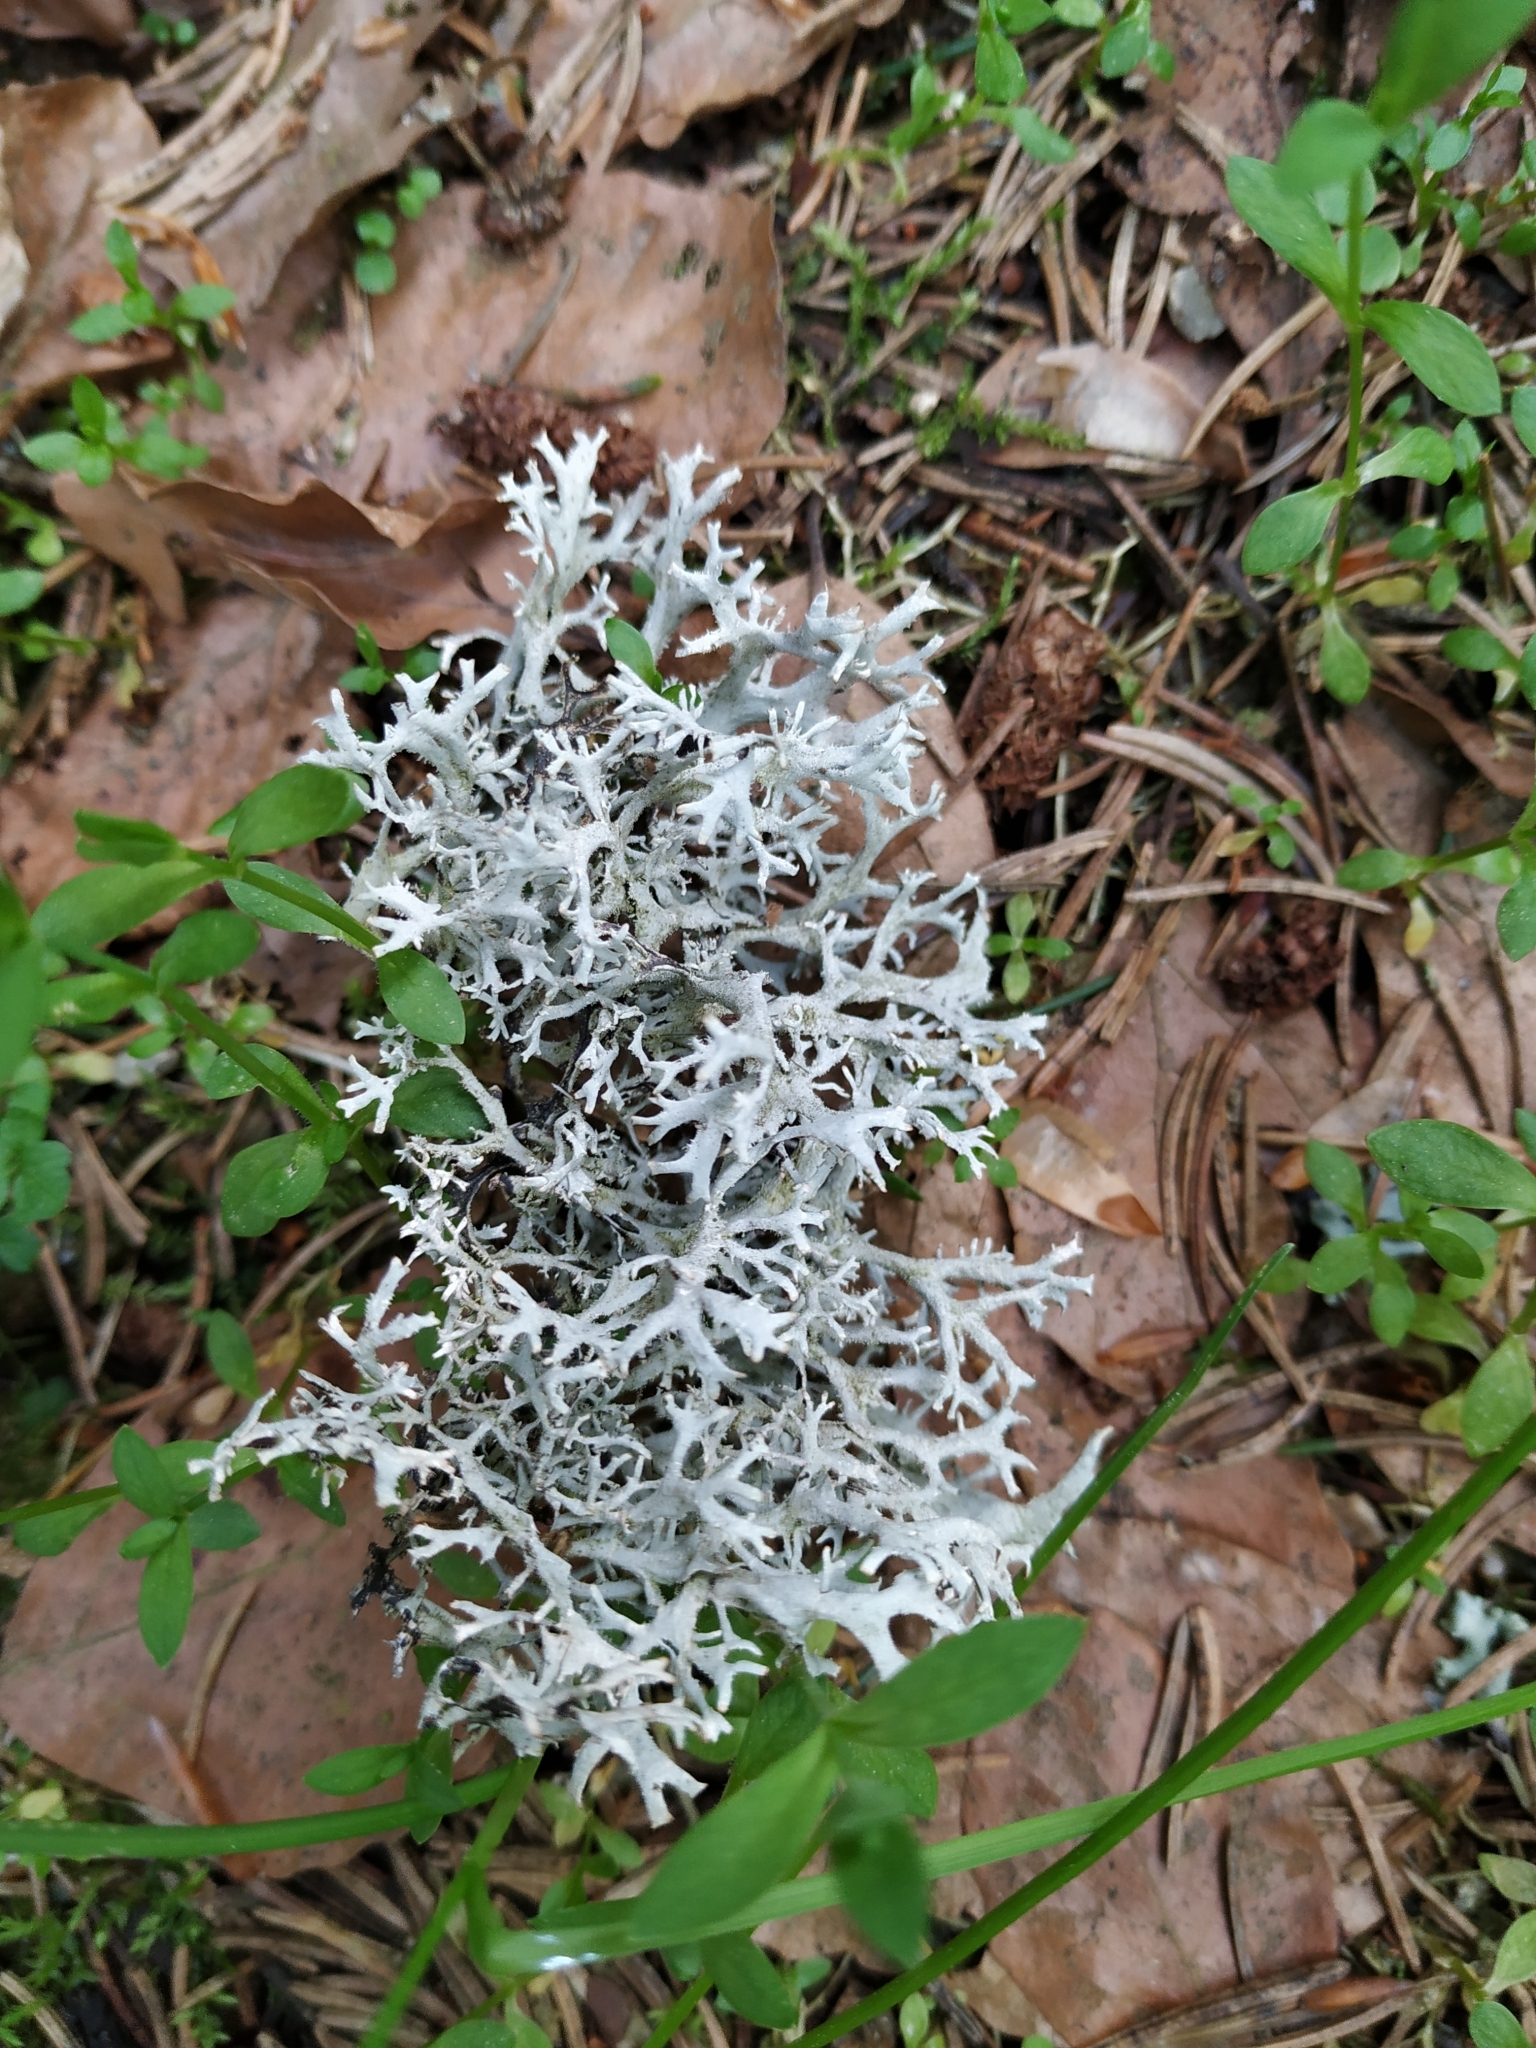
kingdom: Fungi
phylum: Ascomycota
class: Lecanoromycetes
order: Lecanorales
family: Parmeliaceae
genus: Pseudevernia
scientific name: Pseudevernia furfuracea
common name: Tree moss
